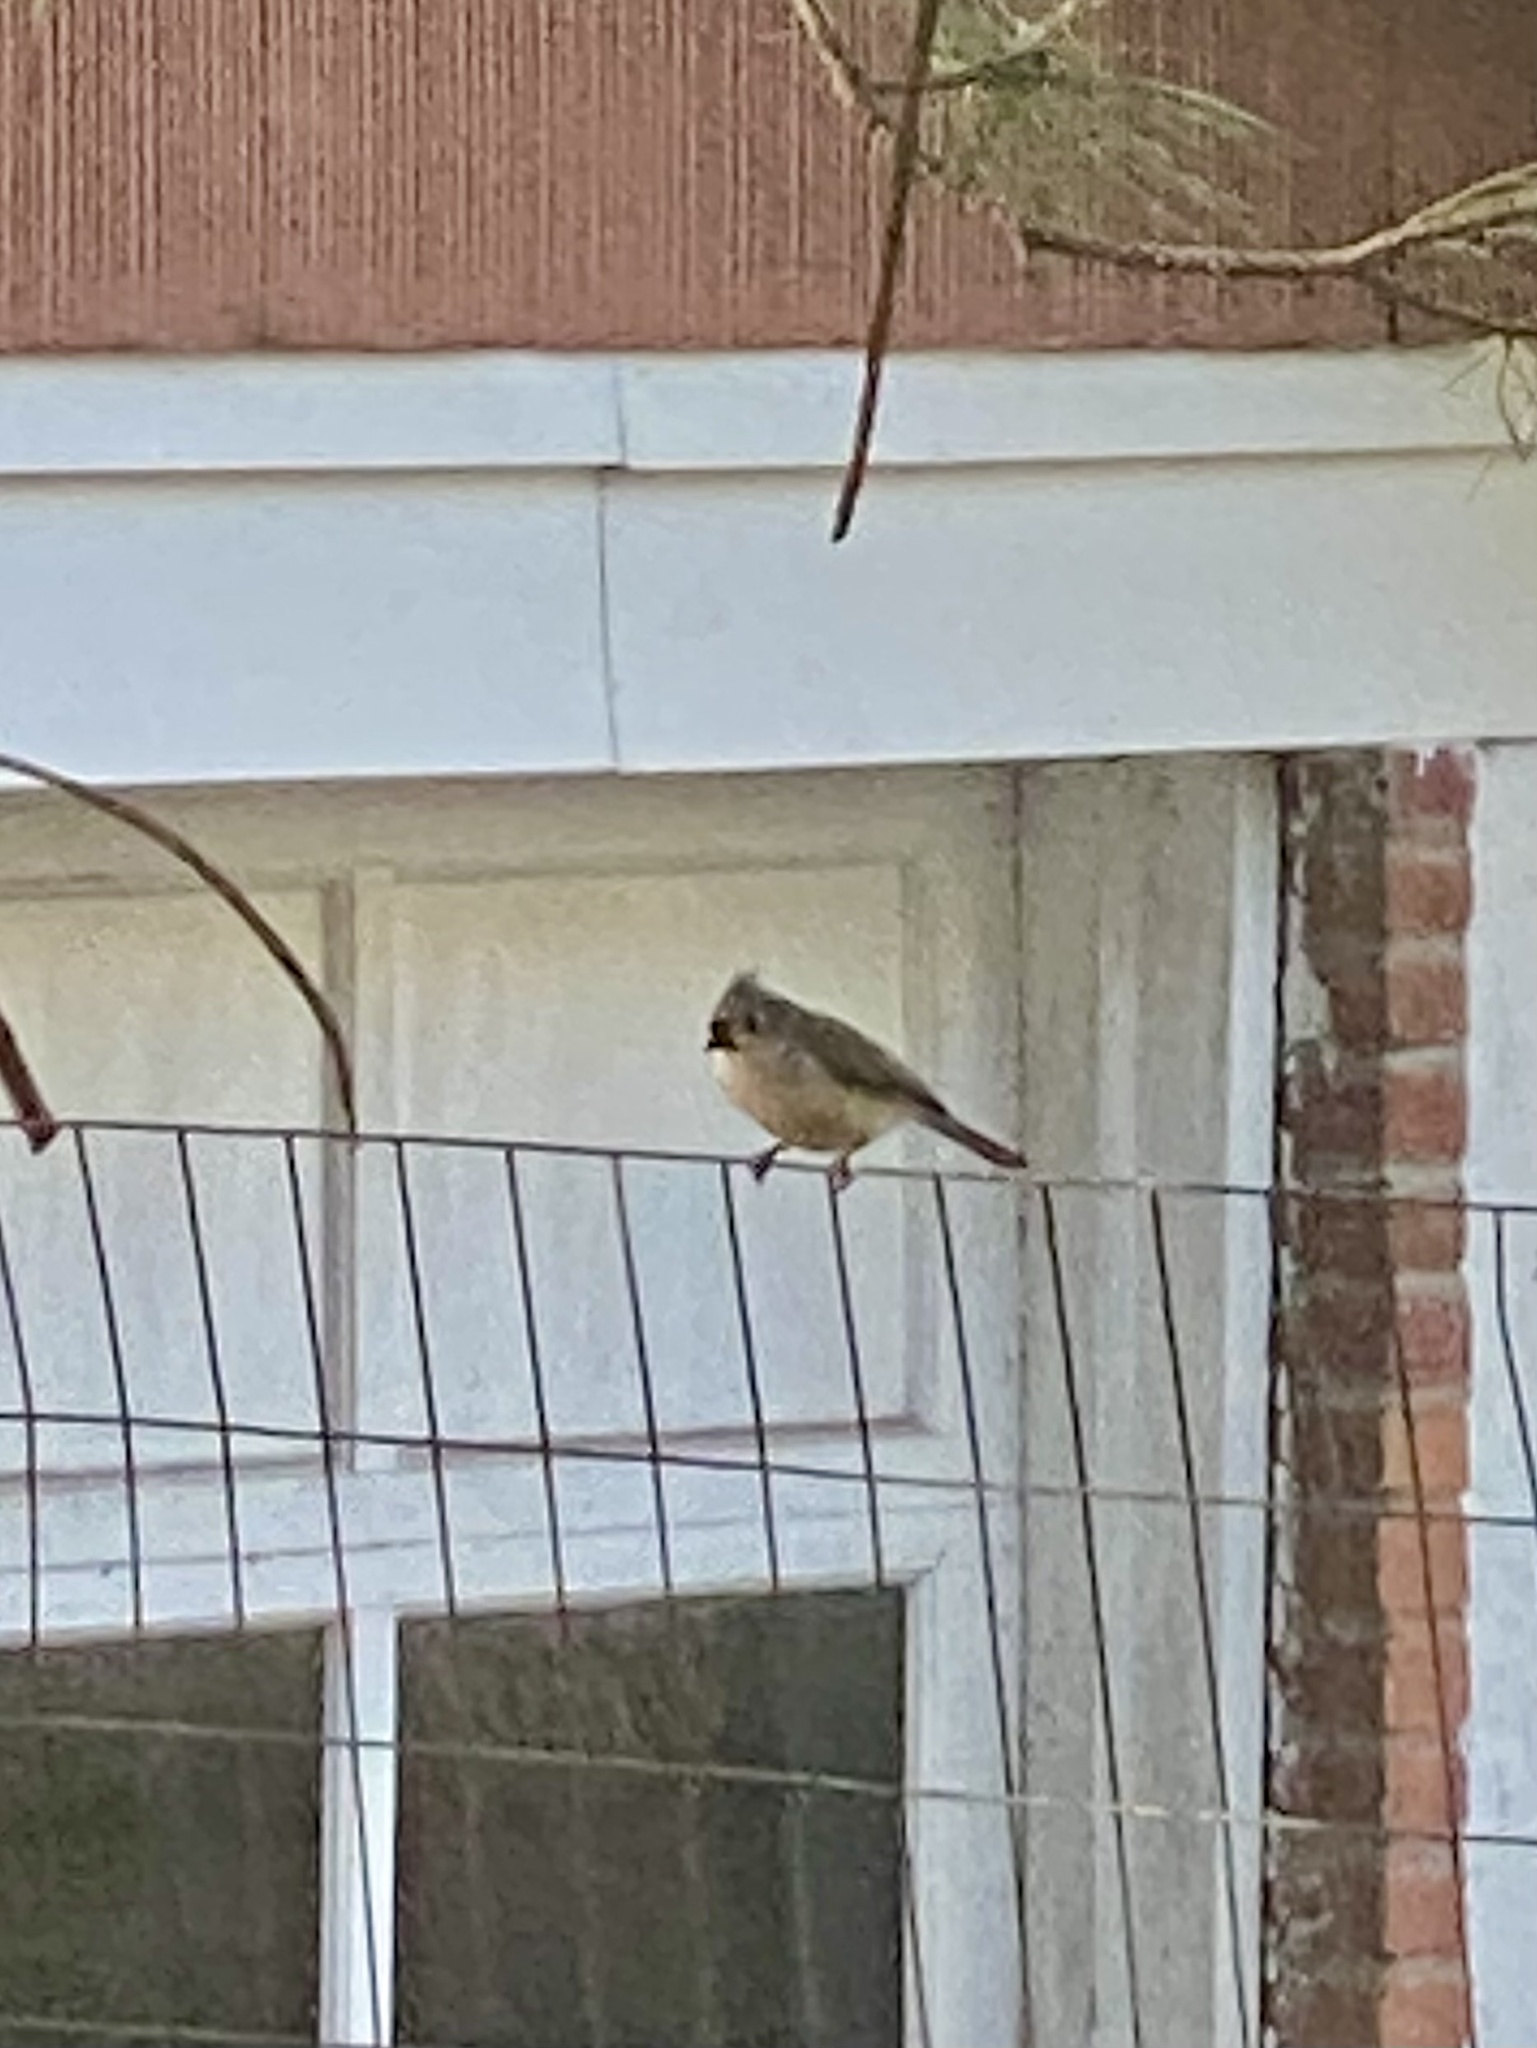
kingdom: Animalia
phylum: Chordata
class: Aves
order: Passeriformes
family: Paridae
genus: Baeolophus
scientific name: Baeolophus bicolor
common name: Tufted titmouse
